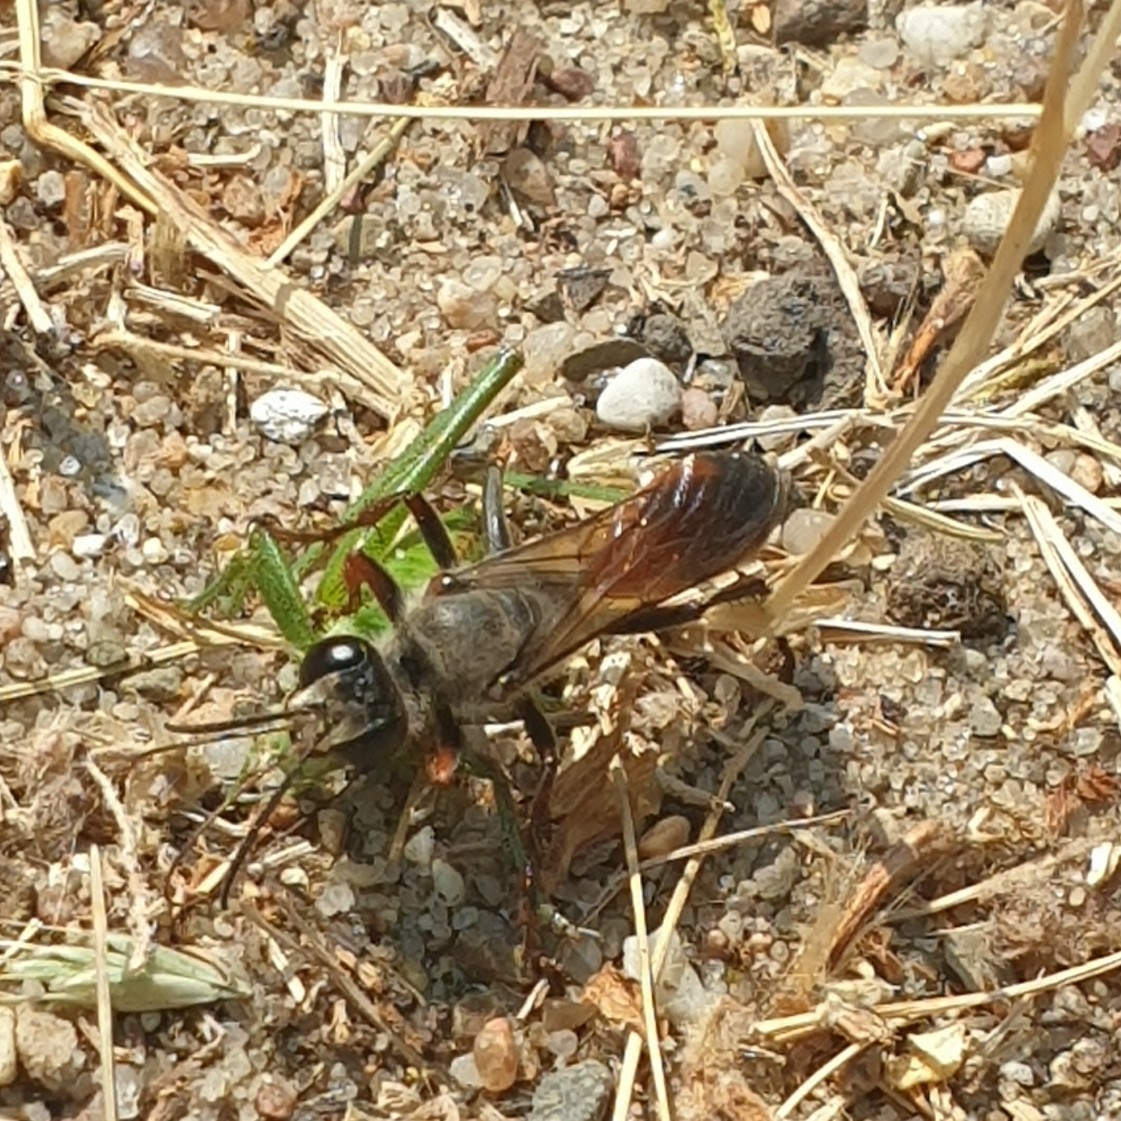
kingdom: Animalia
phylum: Arthropoda
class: Insecta
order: Hymenoptera
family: Sphecidae
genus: Sphex
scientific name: Sphex funerarius
